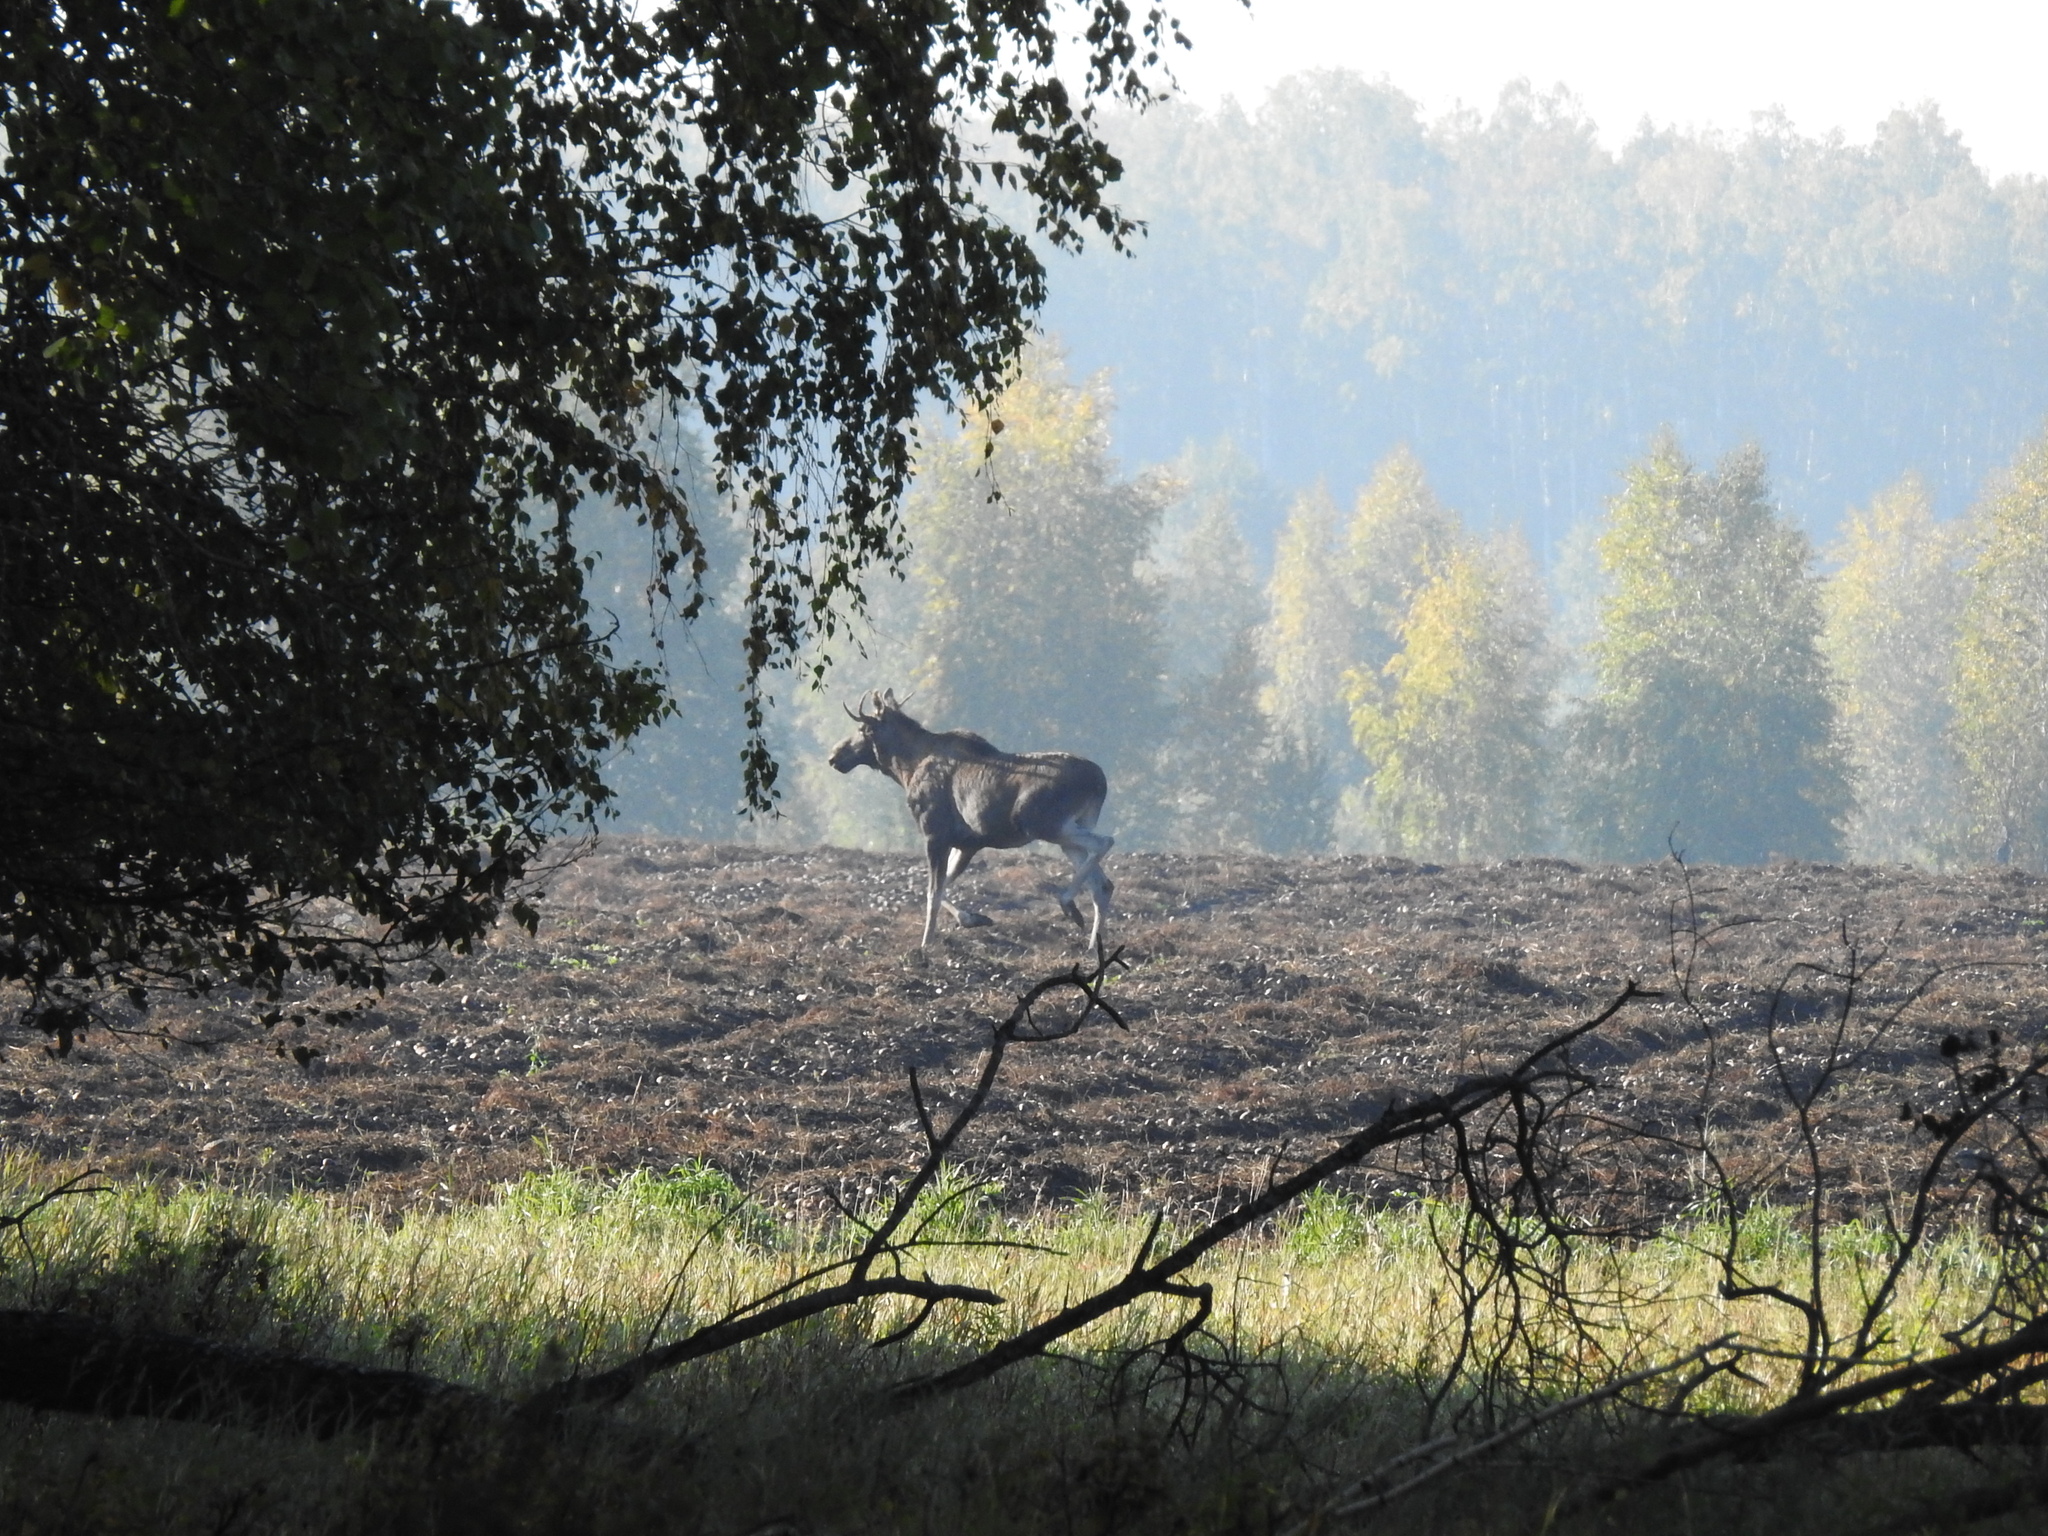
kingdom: Animalia
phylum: Chordata
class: Mammalia
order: Artiodactyla
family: Cervidae
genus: Alces
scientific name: Alces alces
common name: Moose
